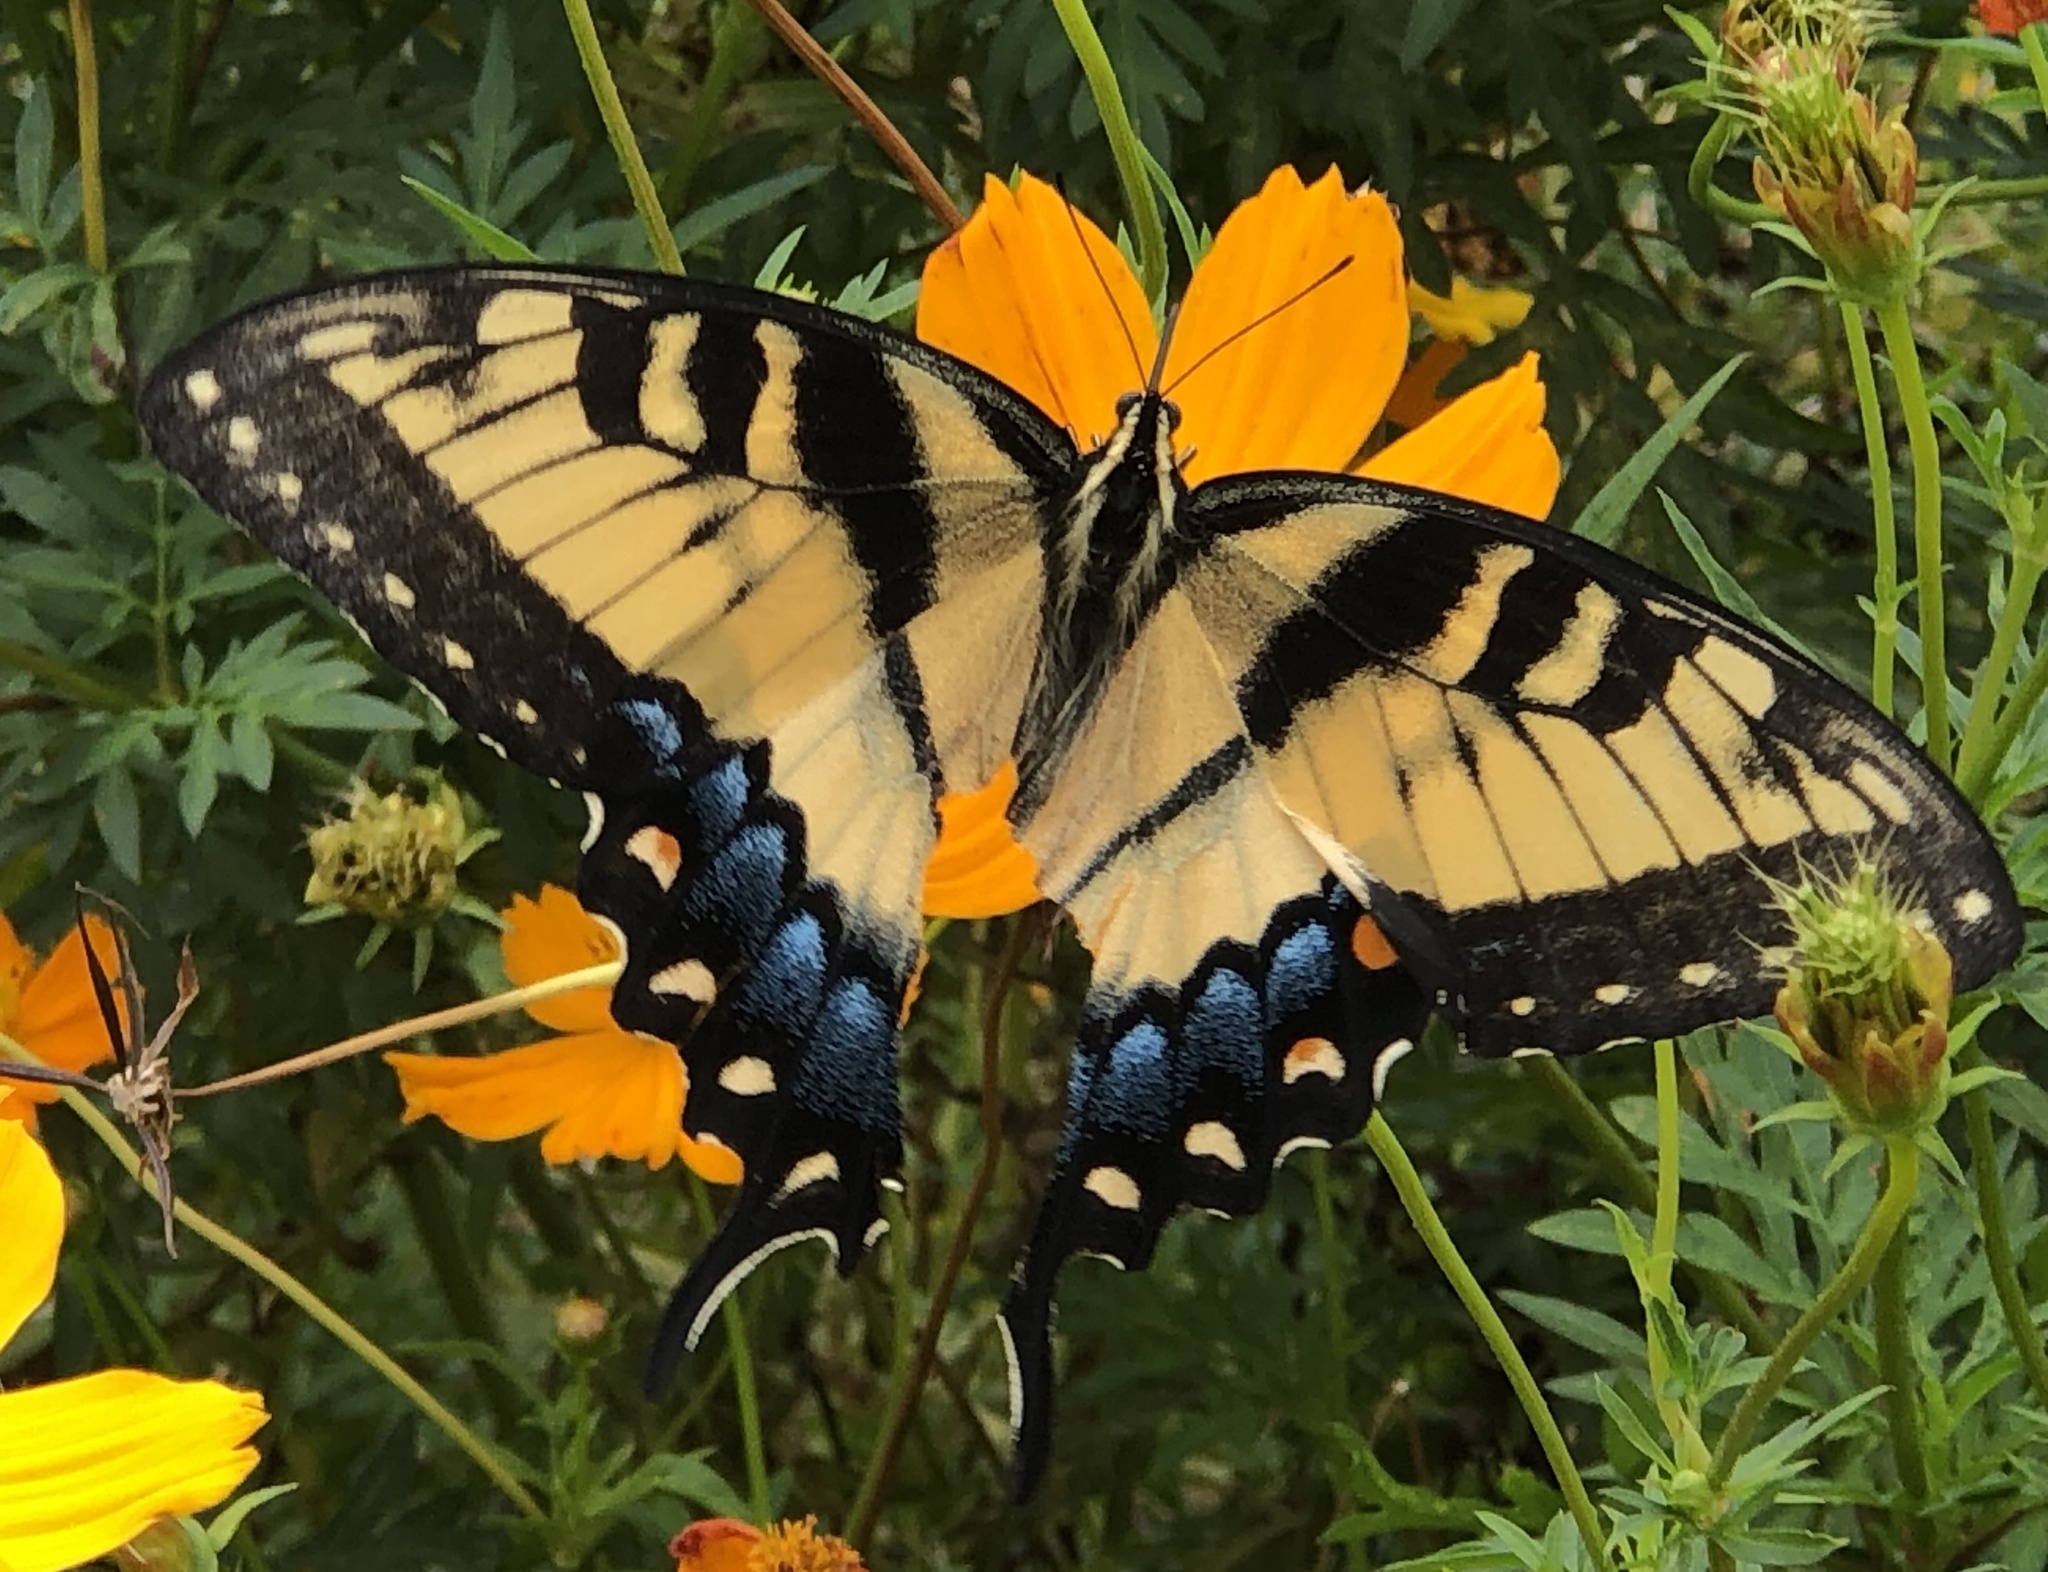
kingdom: Animalia
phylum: Arthropoda
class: Insecta
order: Lepidoptera
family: Papilionidae
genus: Papilio
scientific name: Papilio glaucus
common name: Tiger swallowtail
